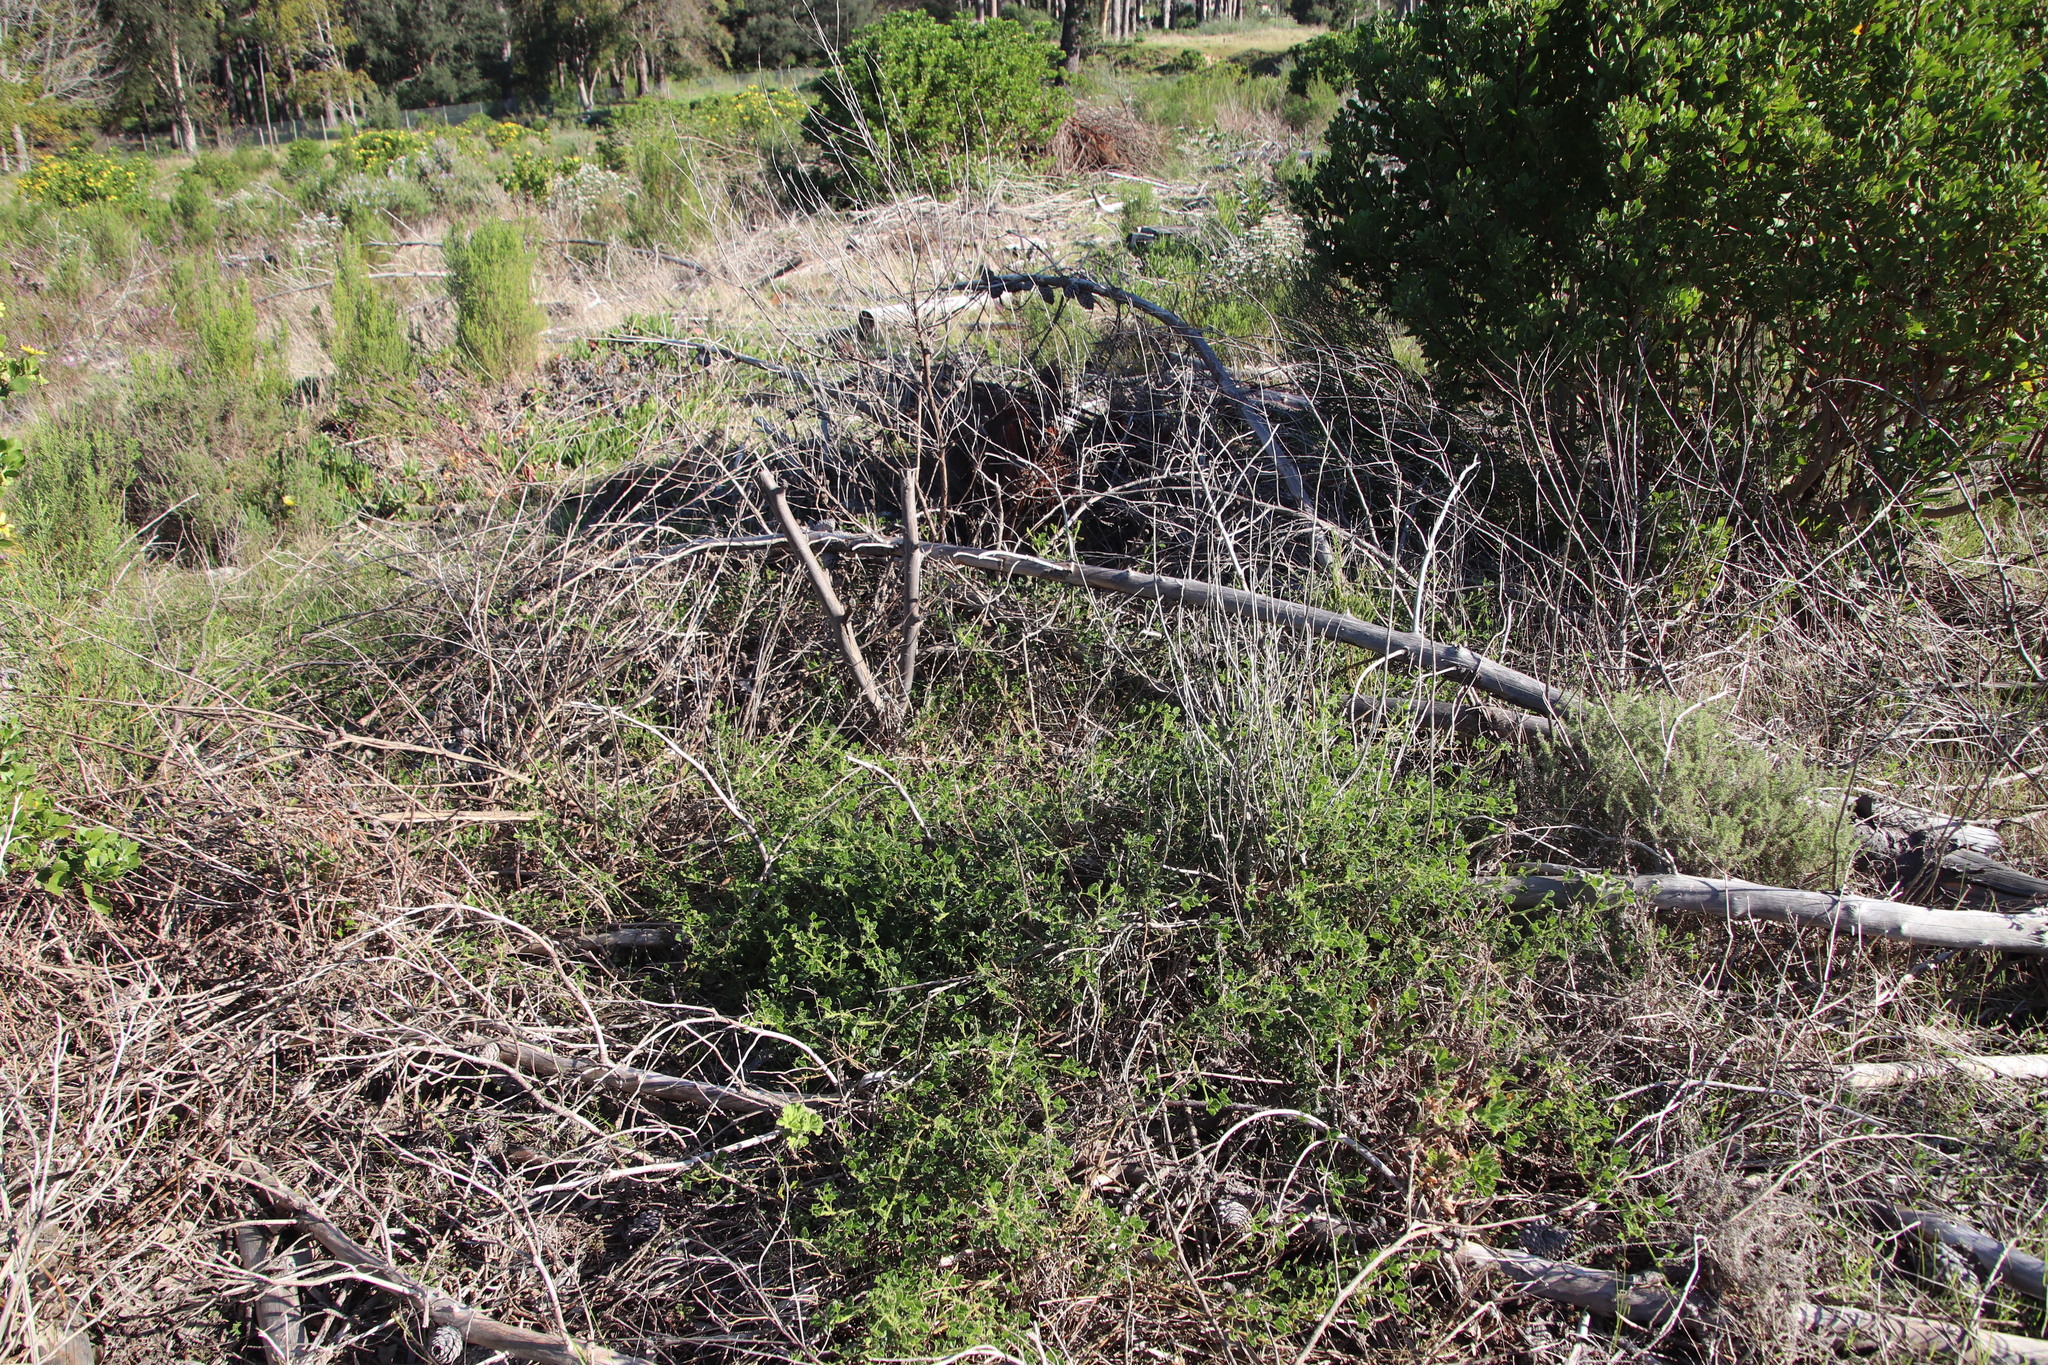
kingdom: Plantae
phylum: Tracheophyta
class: Magnoliopsida
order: Fabales
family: Fabaceae
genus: Bolusafra
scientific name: Bolusafra bituminosa
